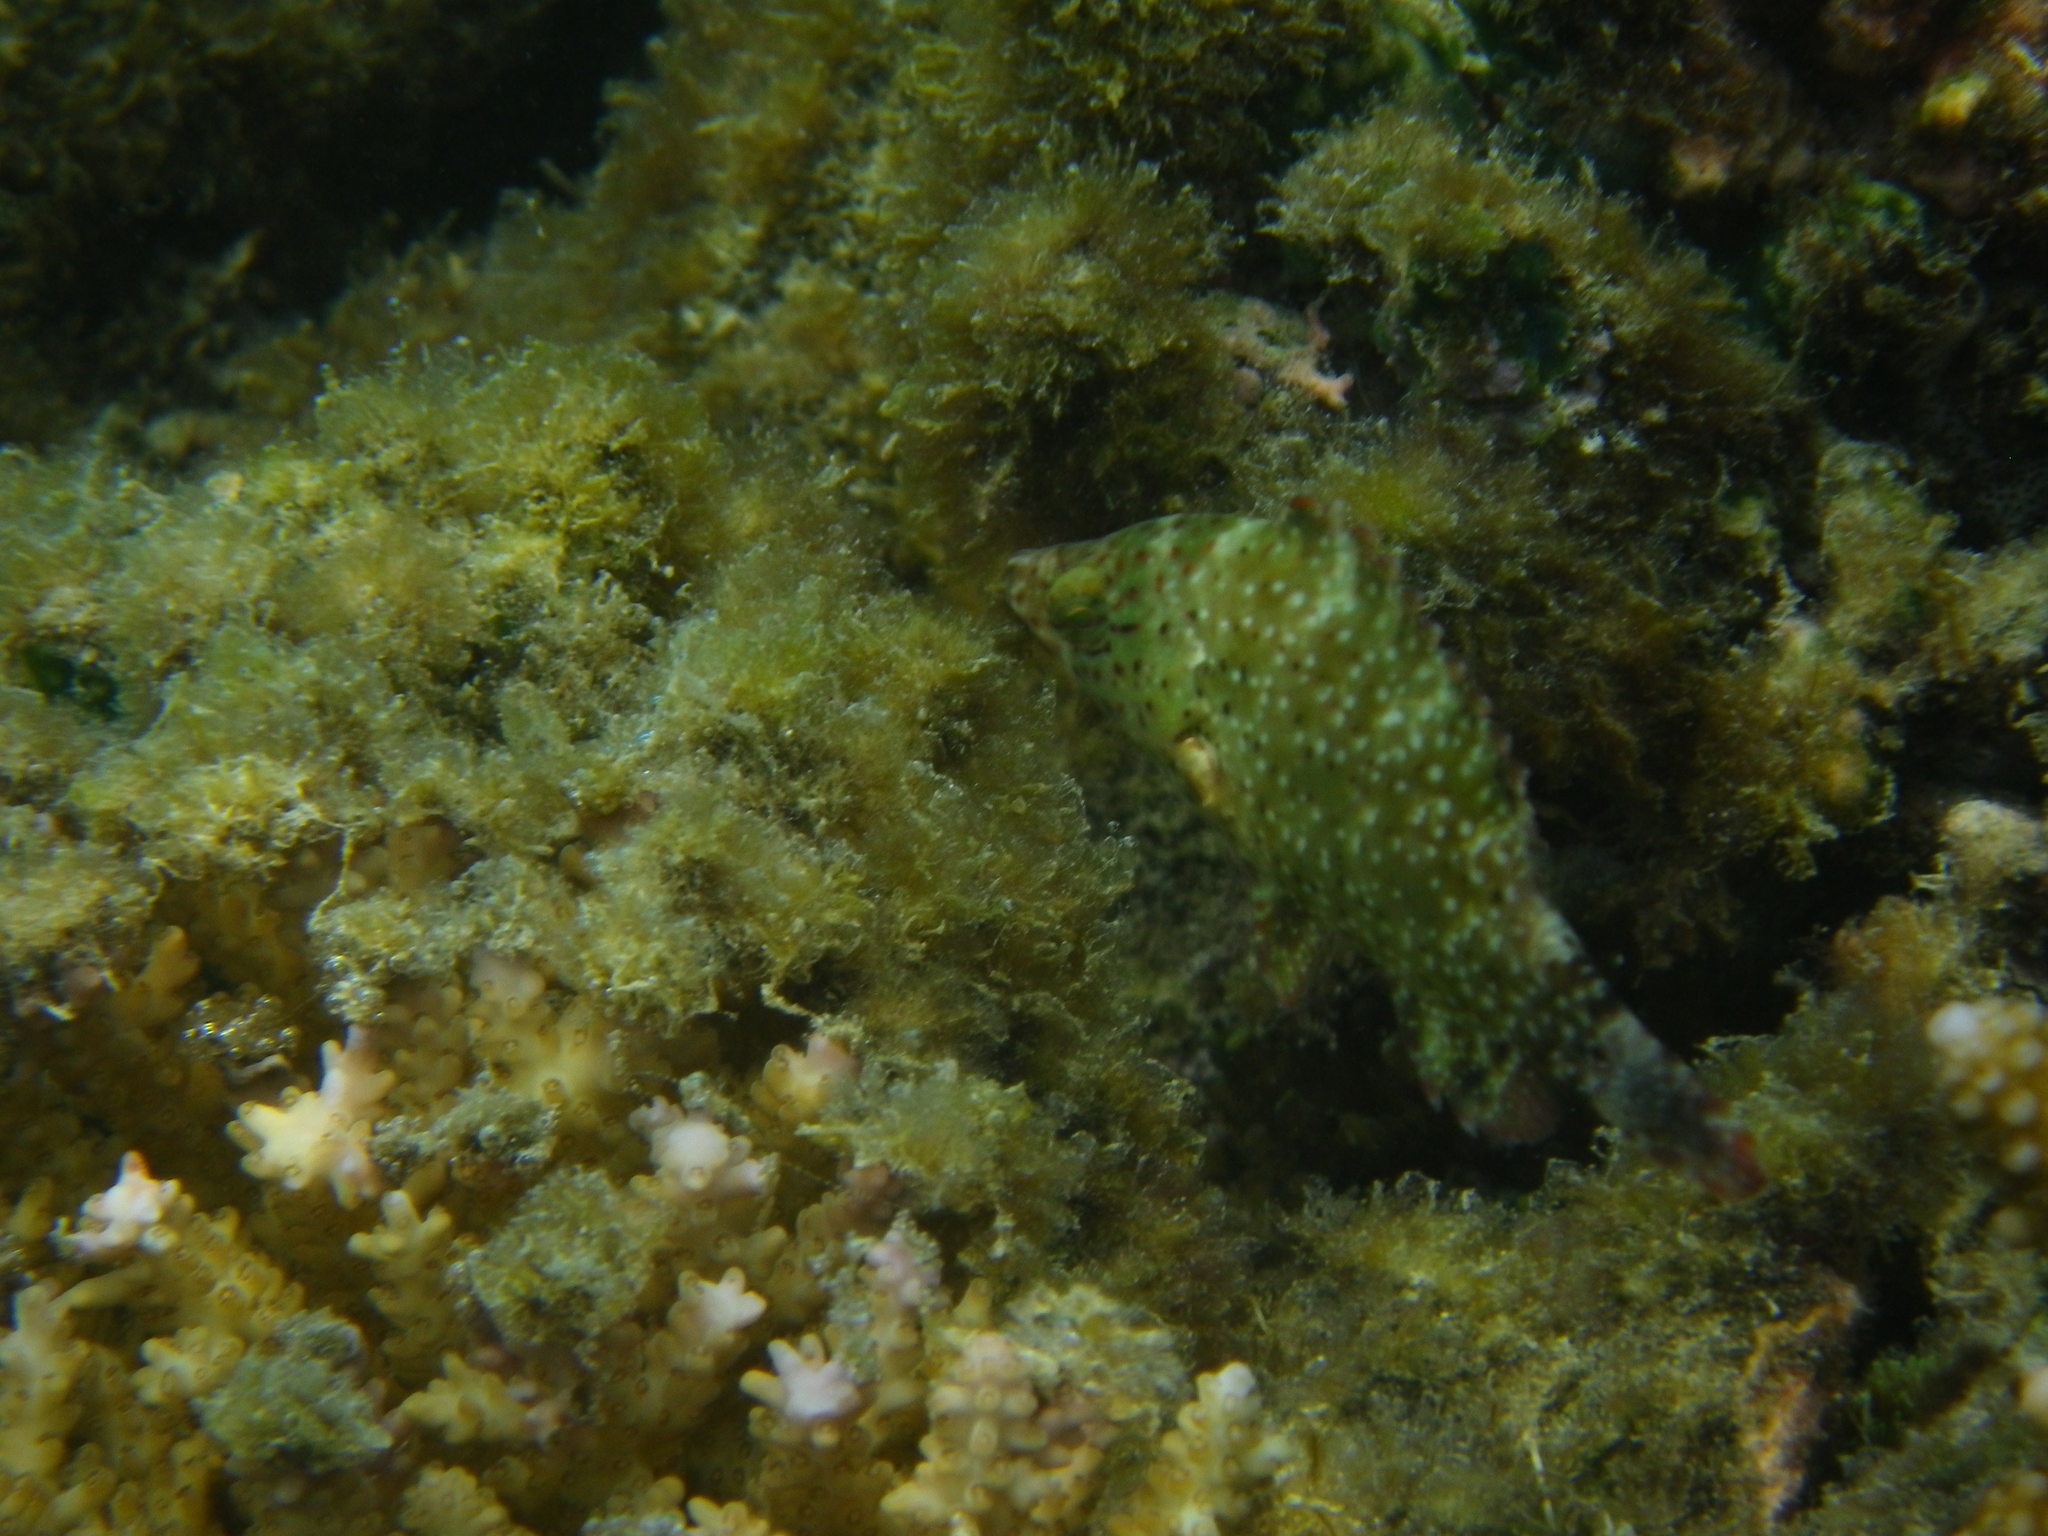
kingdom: Animalia
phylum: Chordata
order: Perciformes
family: Labridae
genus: Cheilinus
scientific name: Cheilinus chlorourus
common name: Floral wrasse
